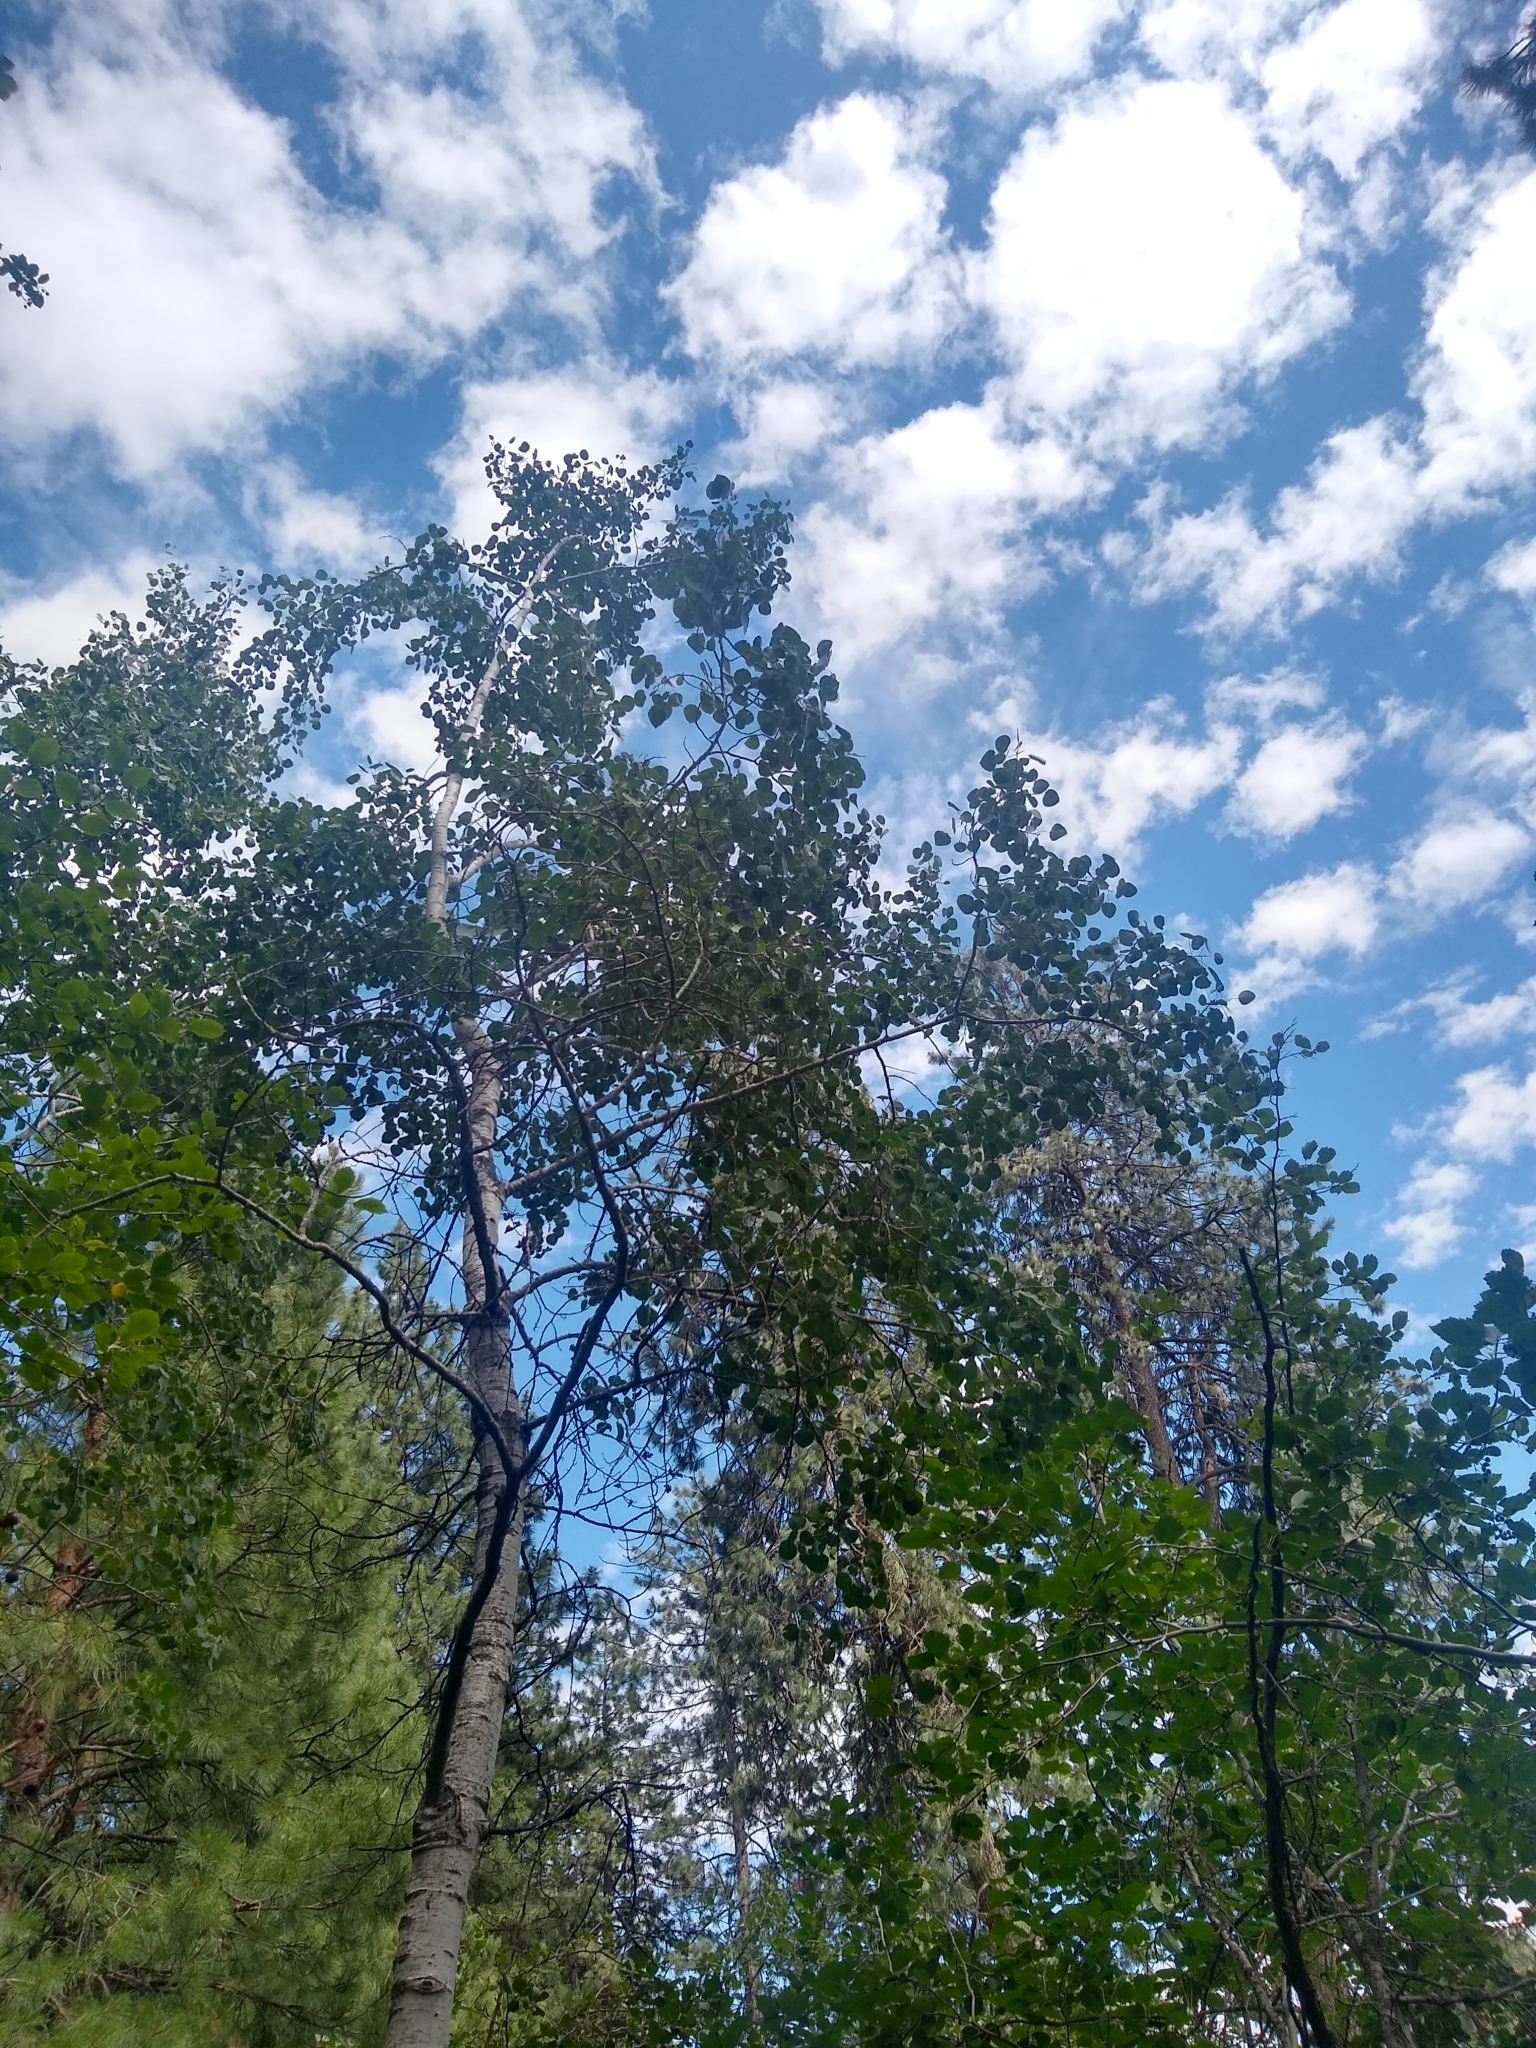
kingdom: Plantae
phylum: Tracheophyta
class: Magnoliopsida
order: Malpighiales
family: Salicaceae
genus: Populus
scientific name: Populus tremuloides
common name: Quaking aspen
